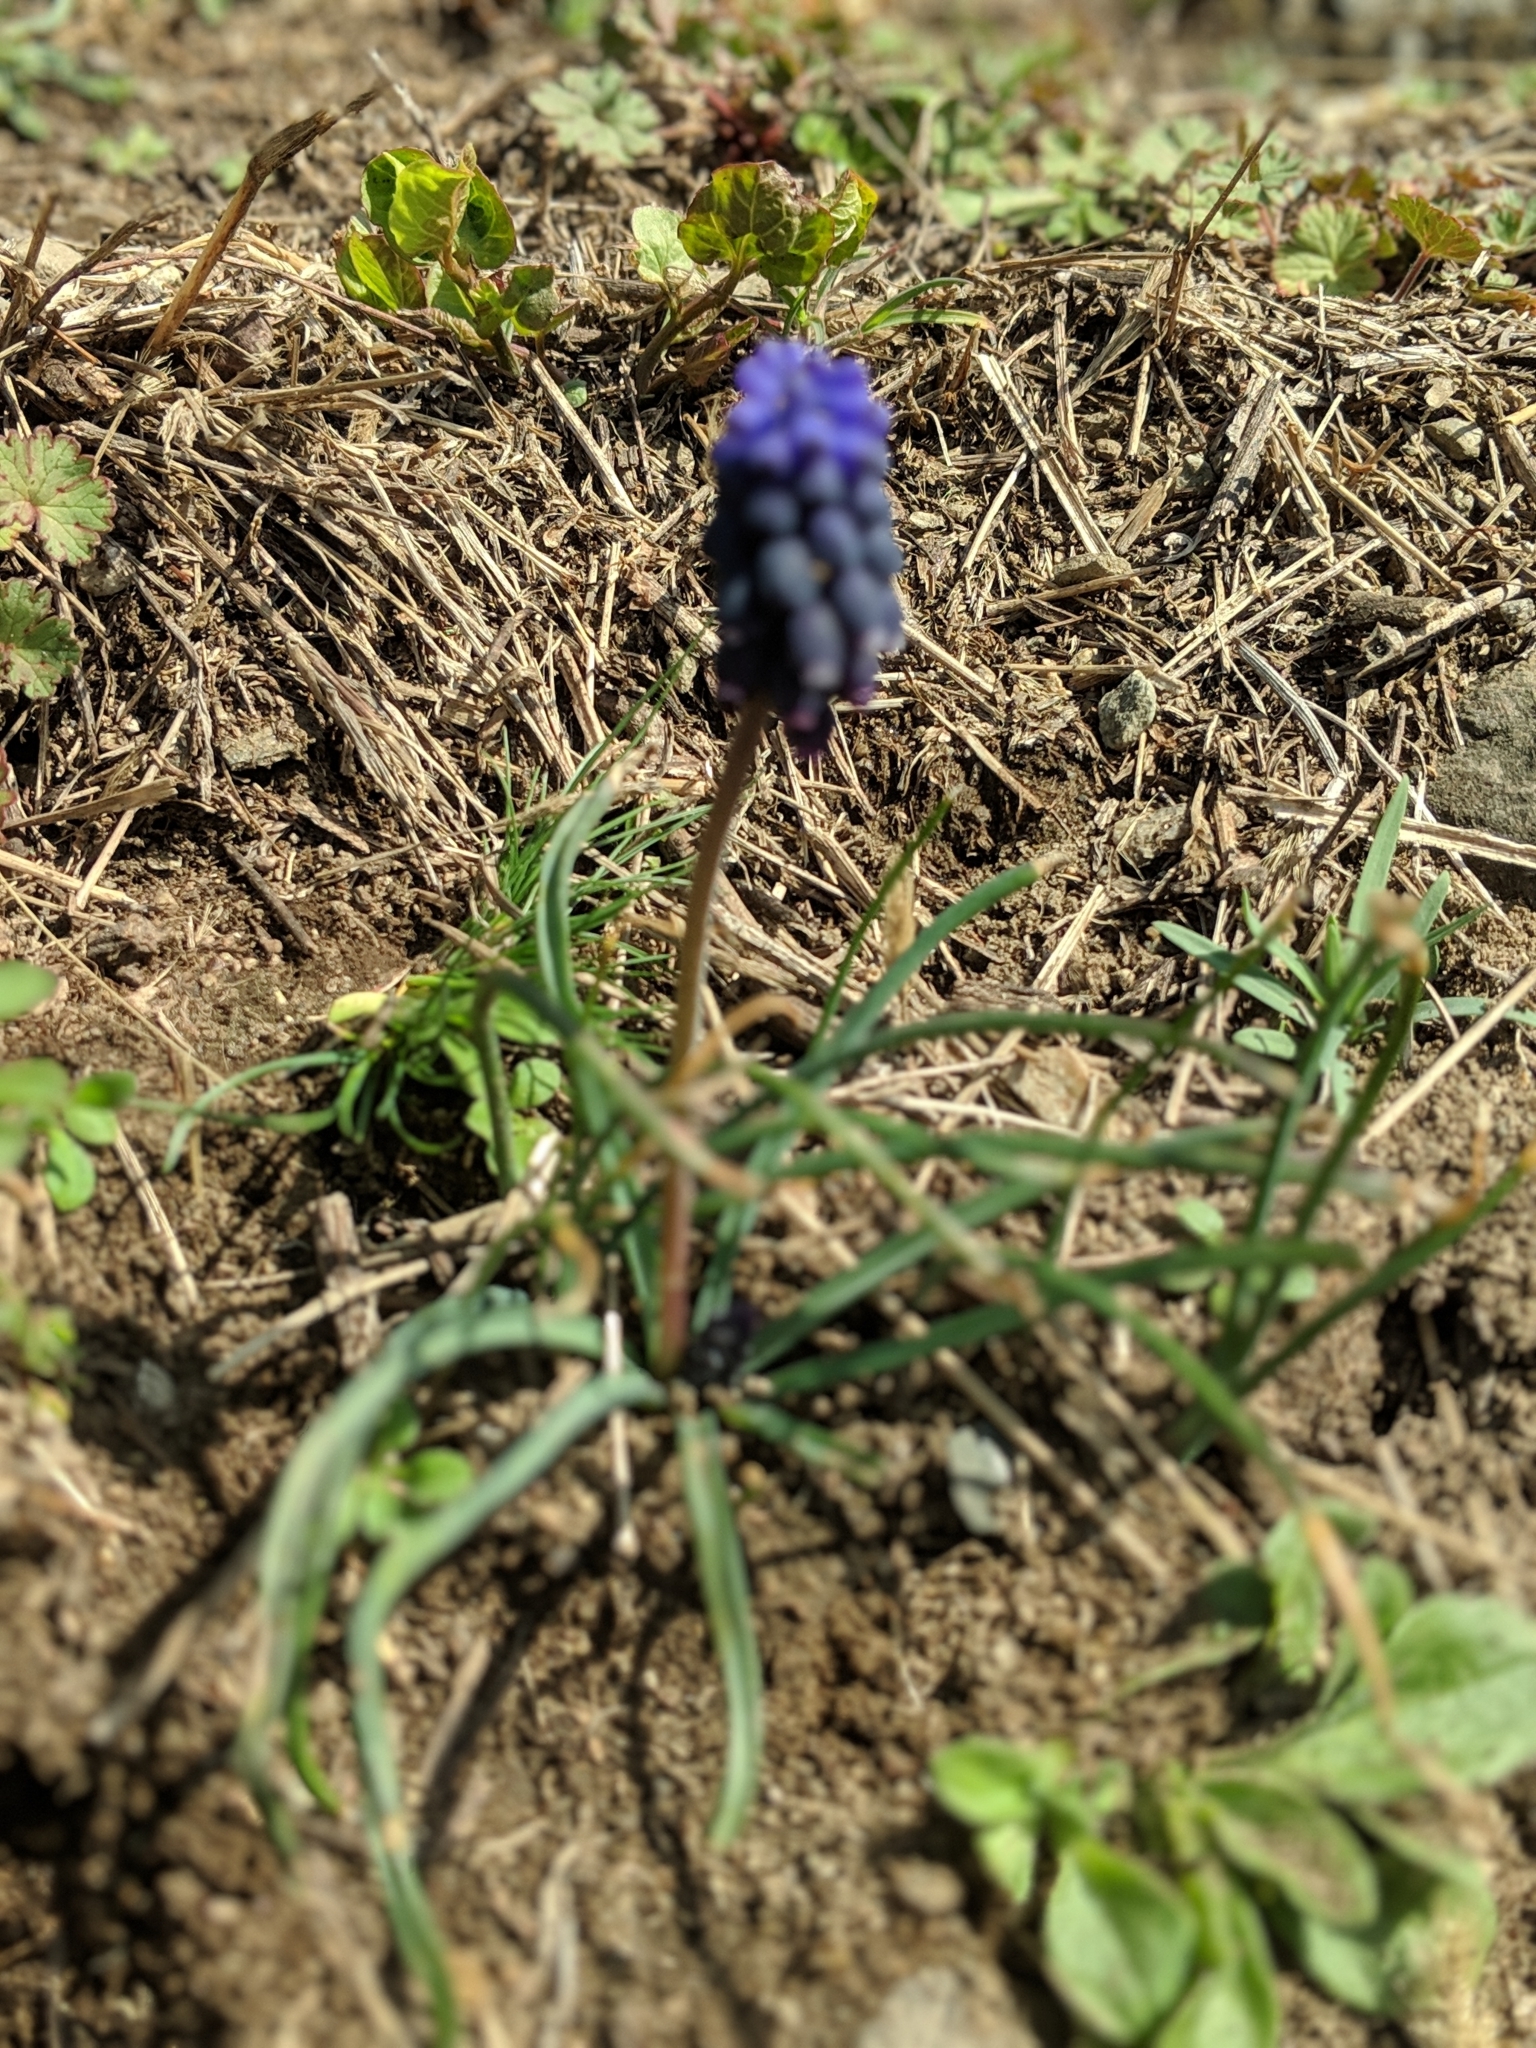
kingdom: Plantae
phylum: Tracheophyta
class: Liliopsida
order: Asparagales
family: Asparagaceae
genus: Muscari
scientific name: Muscari neglectum
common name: Grape-hyacinth
